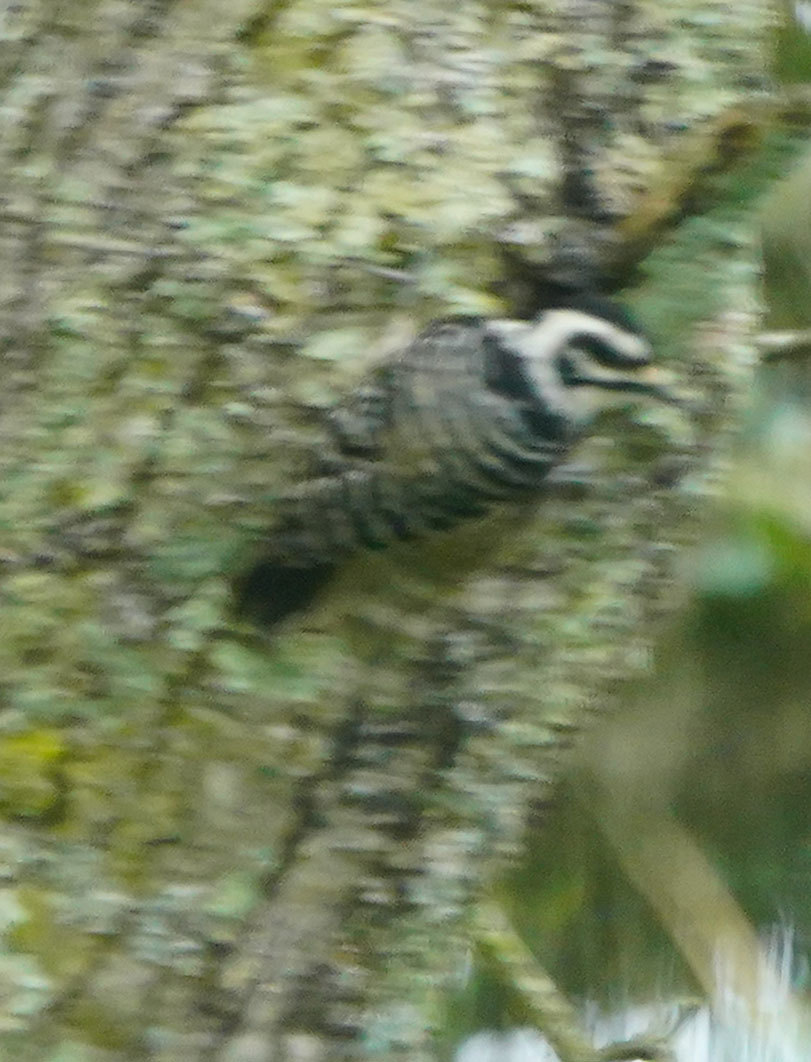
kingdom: Animalia
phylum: Chordata
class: Aves
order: Piciformes
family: Picidae
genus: Dryobates
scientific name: Dryobates nuttallii
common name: Nuttall's woodpecker
